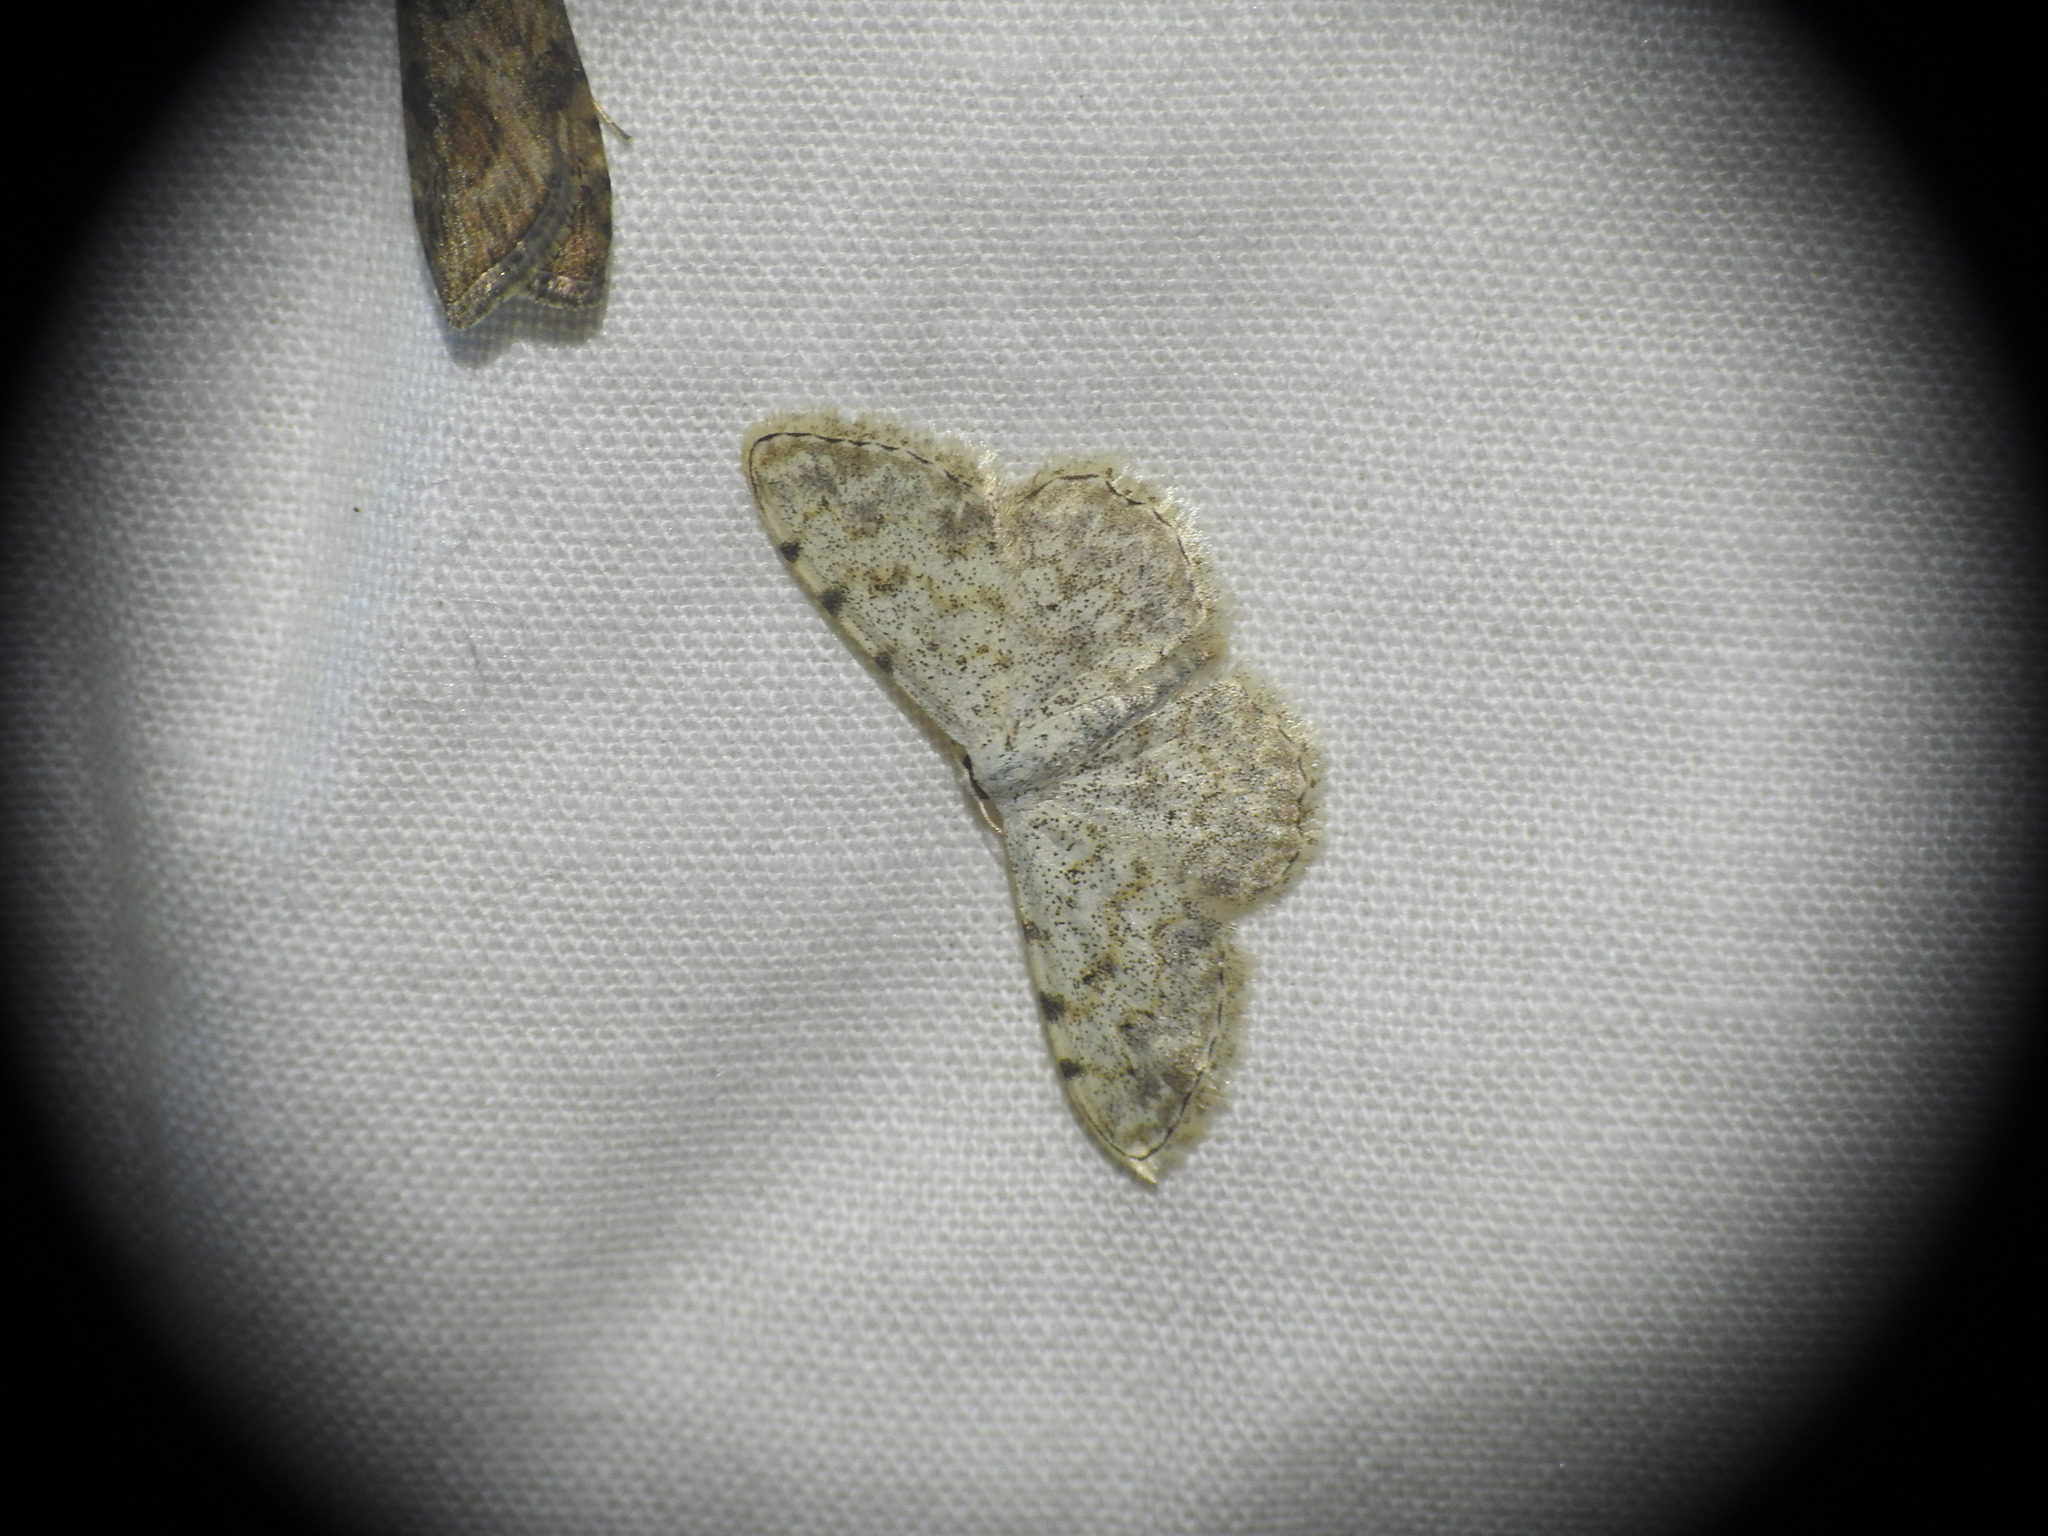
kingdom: Animalia
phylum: Arthropoda
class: Insecta
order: Lepidoptera
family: Geometridae
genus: Scopula
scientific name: Scopula submutata
